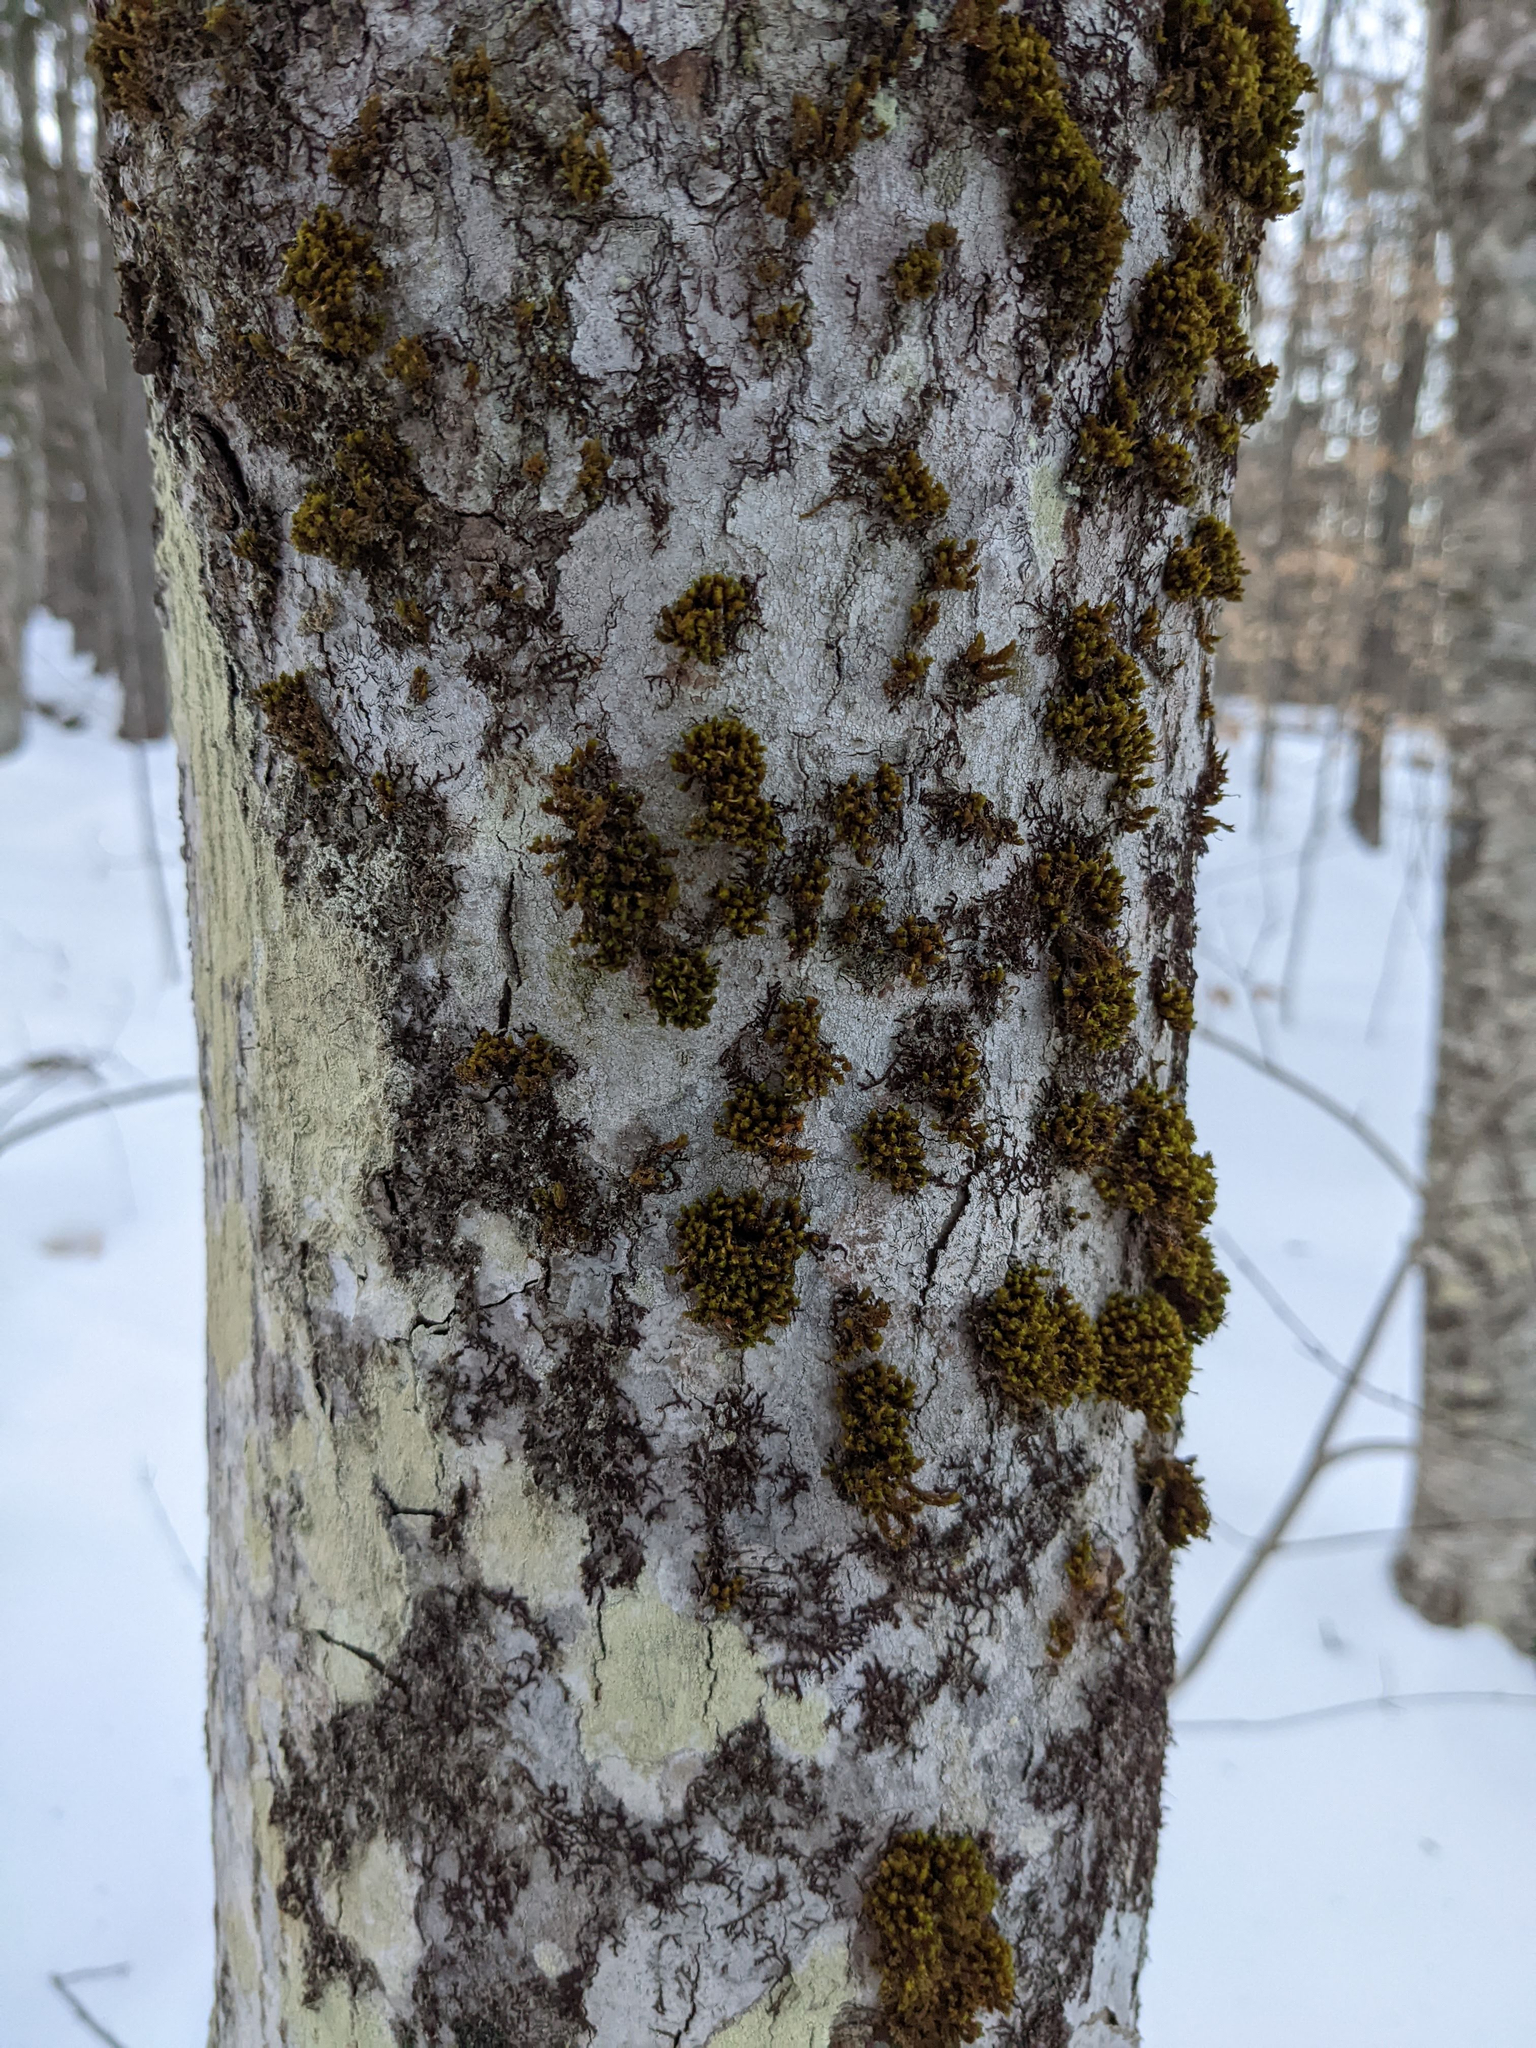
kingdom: Plantae
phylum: Bryophyta
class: Bryopsida
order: Orthotrichales
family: Orthotrichaceae
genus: Ulota
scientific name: Ulota crispa
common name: Crisped pincushion moss
